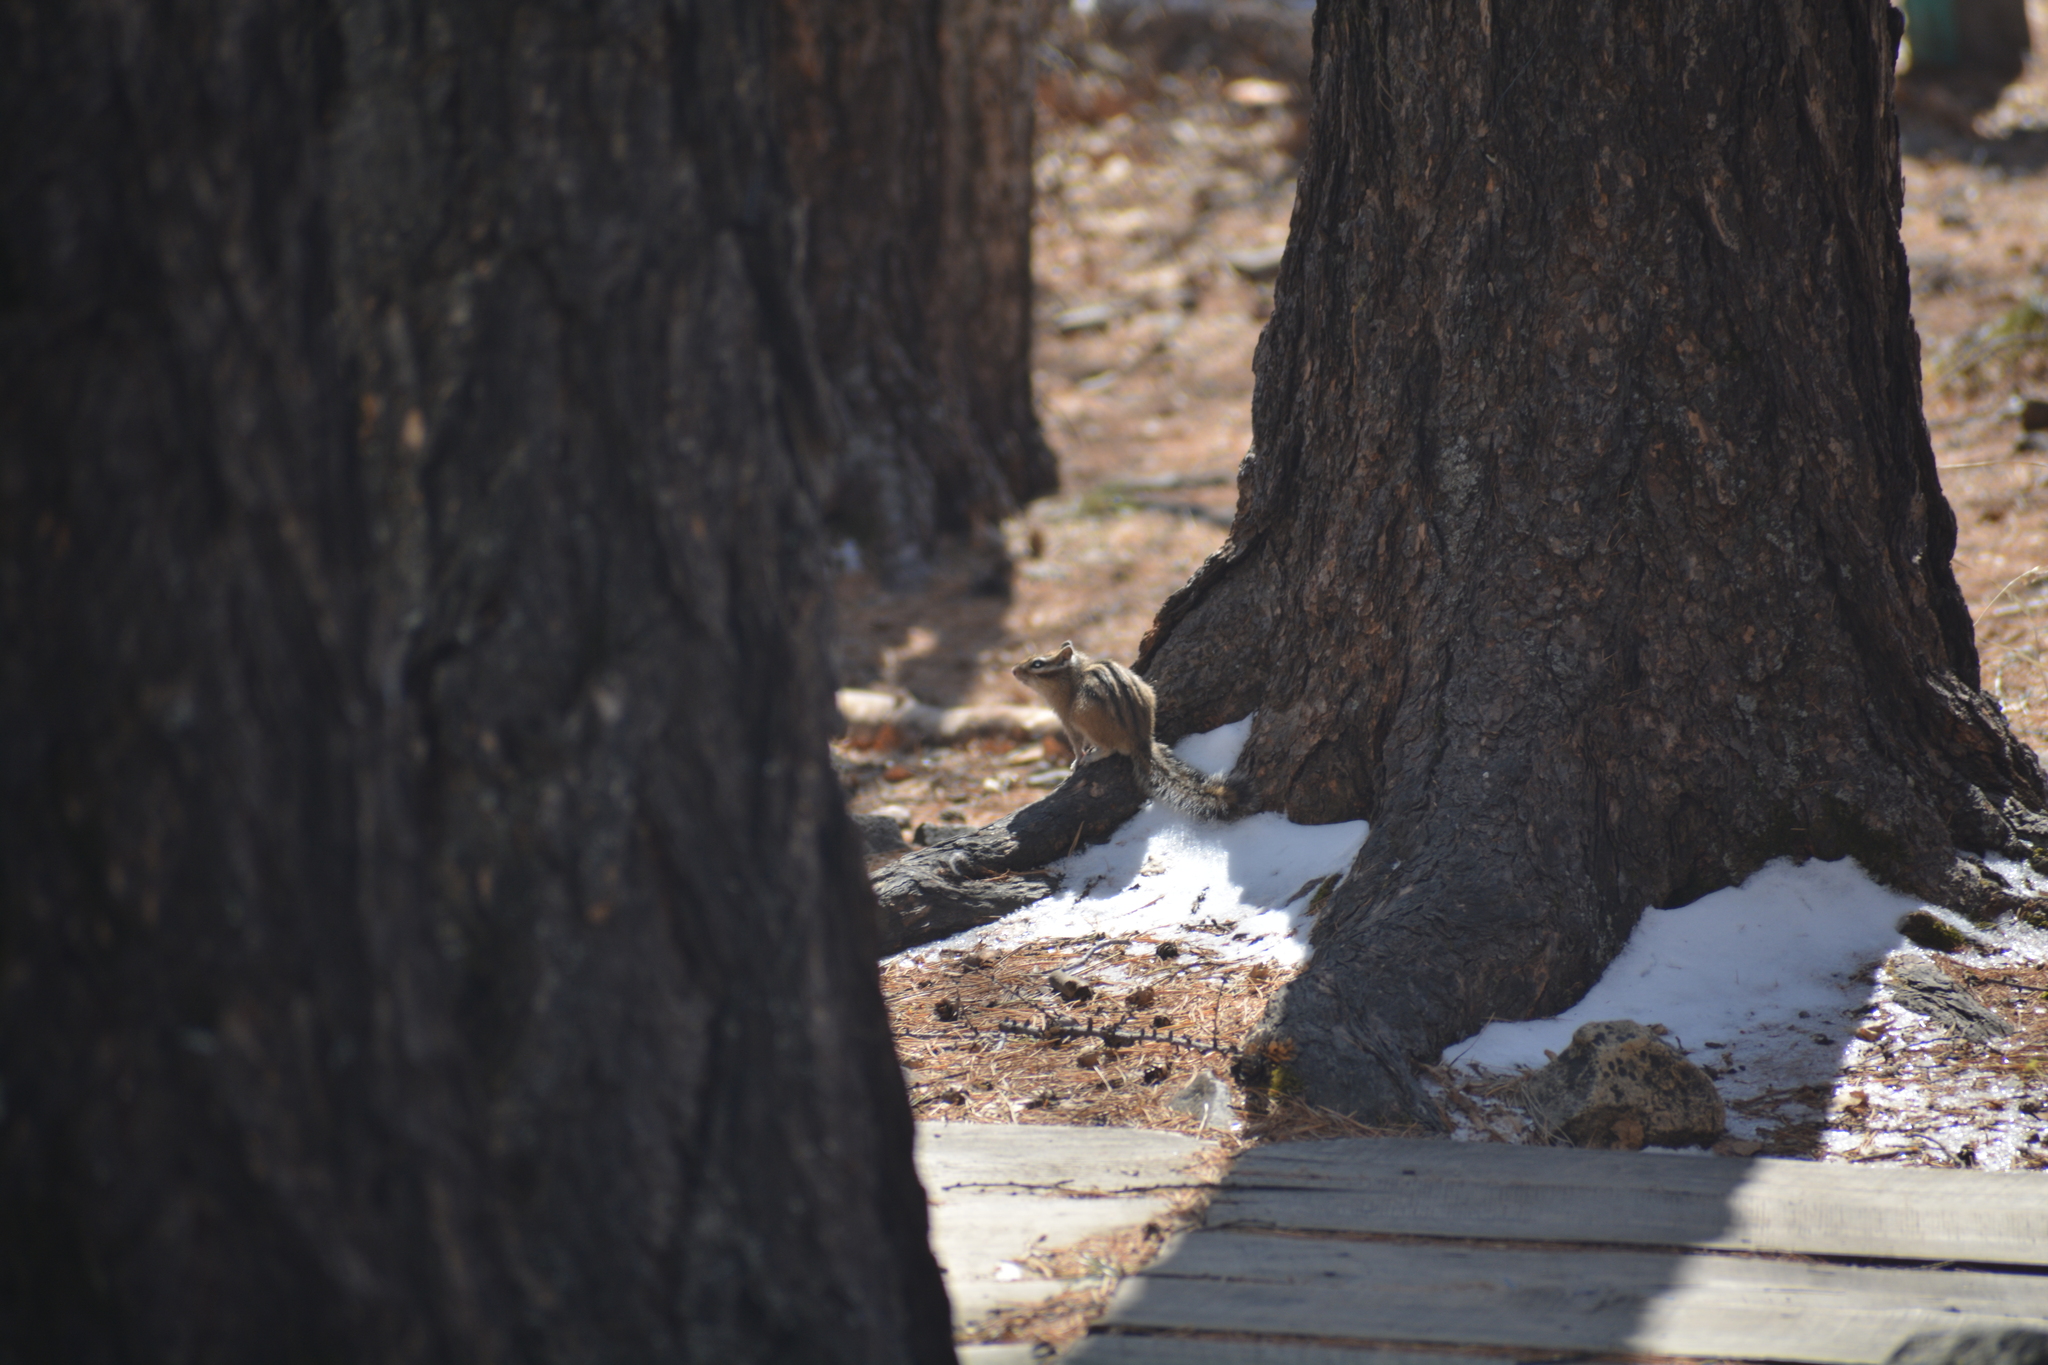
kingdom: Animalia
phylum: Chordata
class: Mammalia
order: Rodentia
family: Sciuridae
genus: Tamias
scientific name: Tamias sibiricus
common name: Siberian chipmunk
